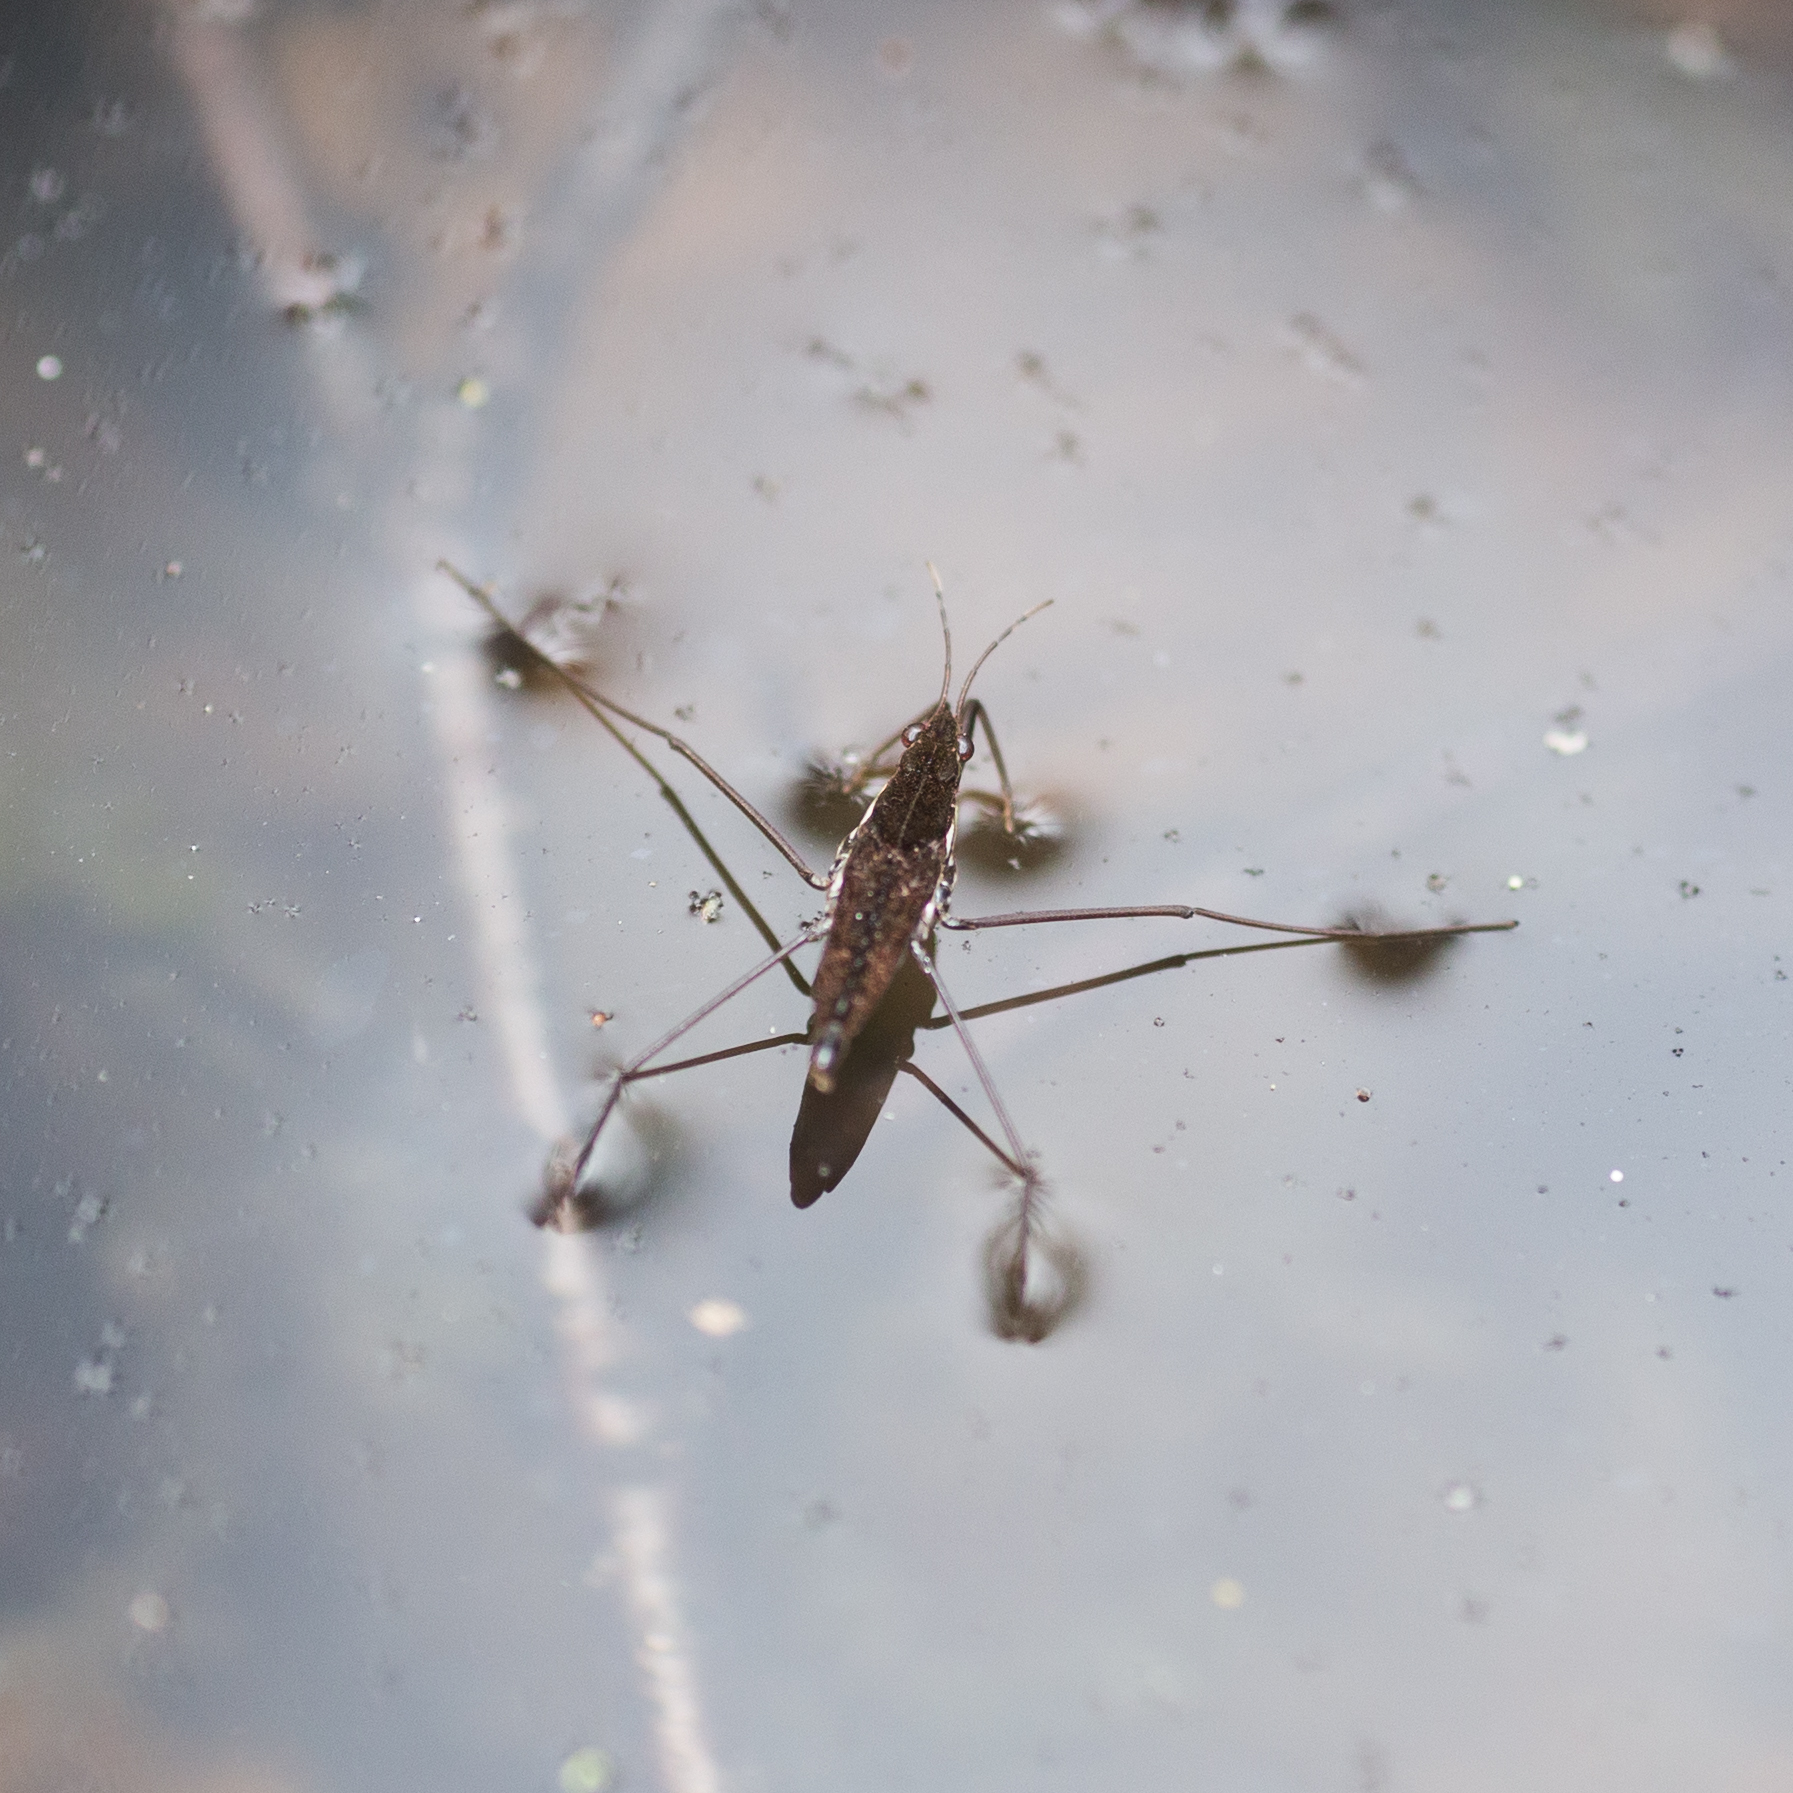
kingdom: Animalia
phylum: Arthropoda
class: Insecta
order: Hemiptera
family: Gerridae
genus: Gerris
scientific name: Gerris
